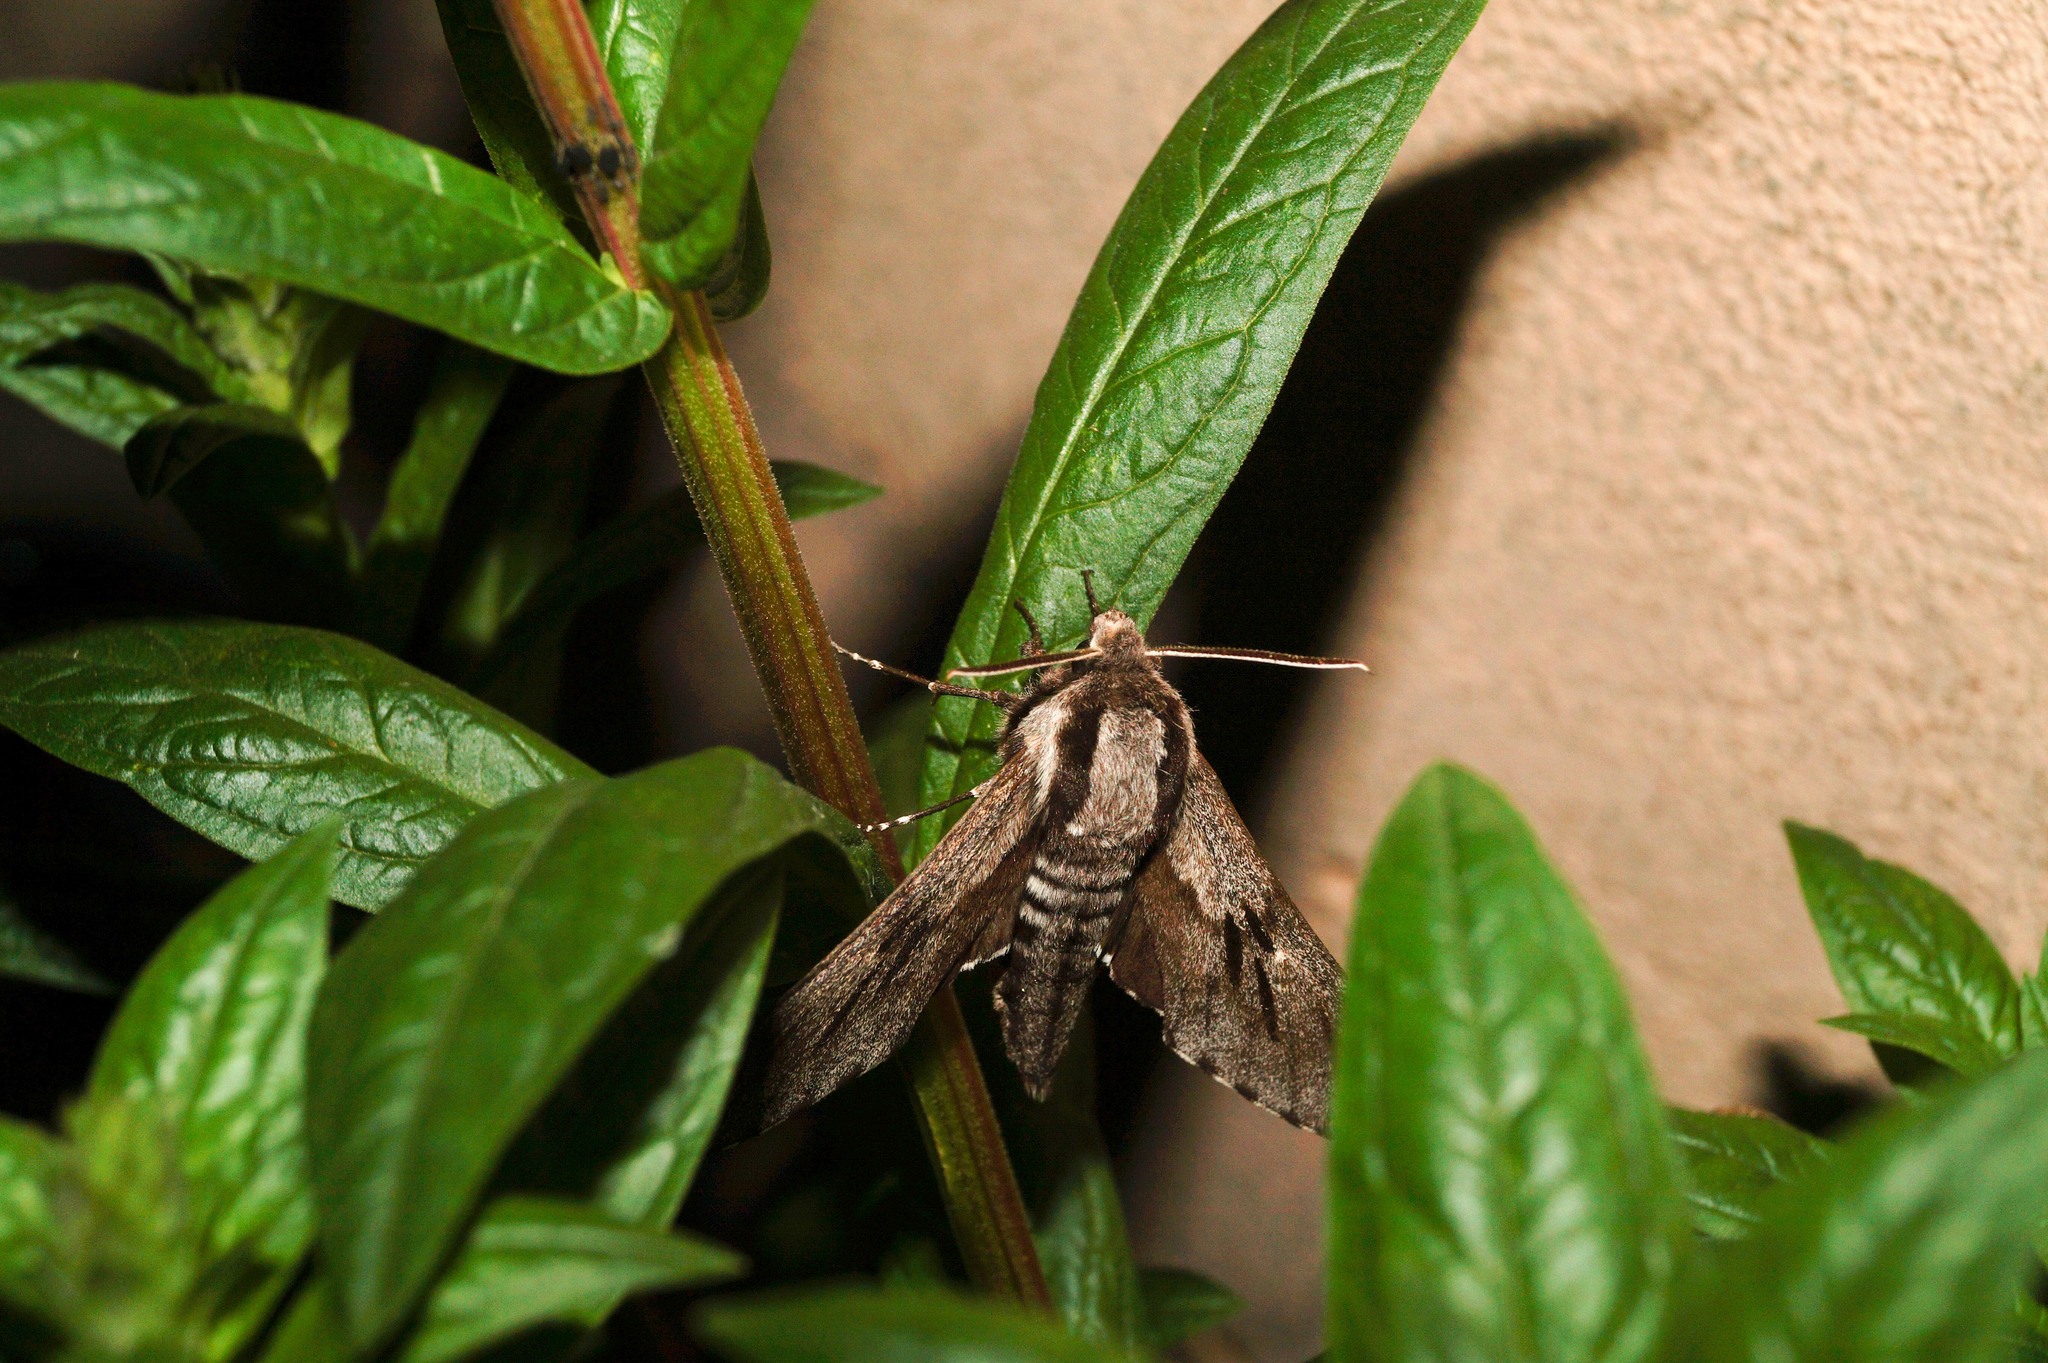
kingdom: Animalia
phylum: Arthropoda
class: Insecta
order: Lepidoptera
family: Sphingidae
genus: Sphinx
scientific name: Sphinx pinastri
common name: Pine hawk-moth
